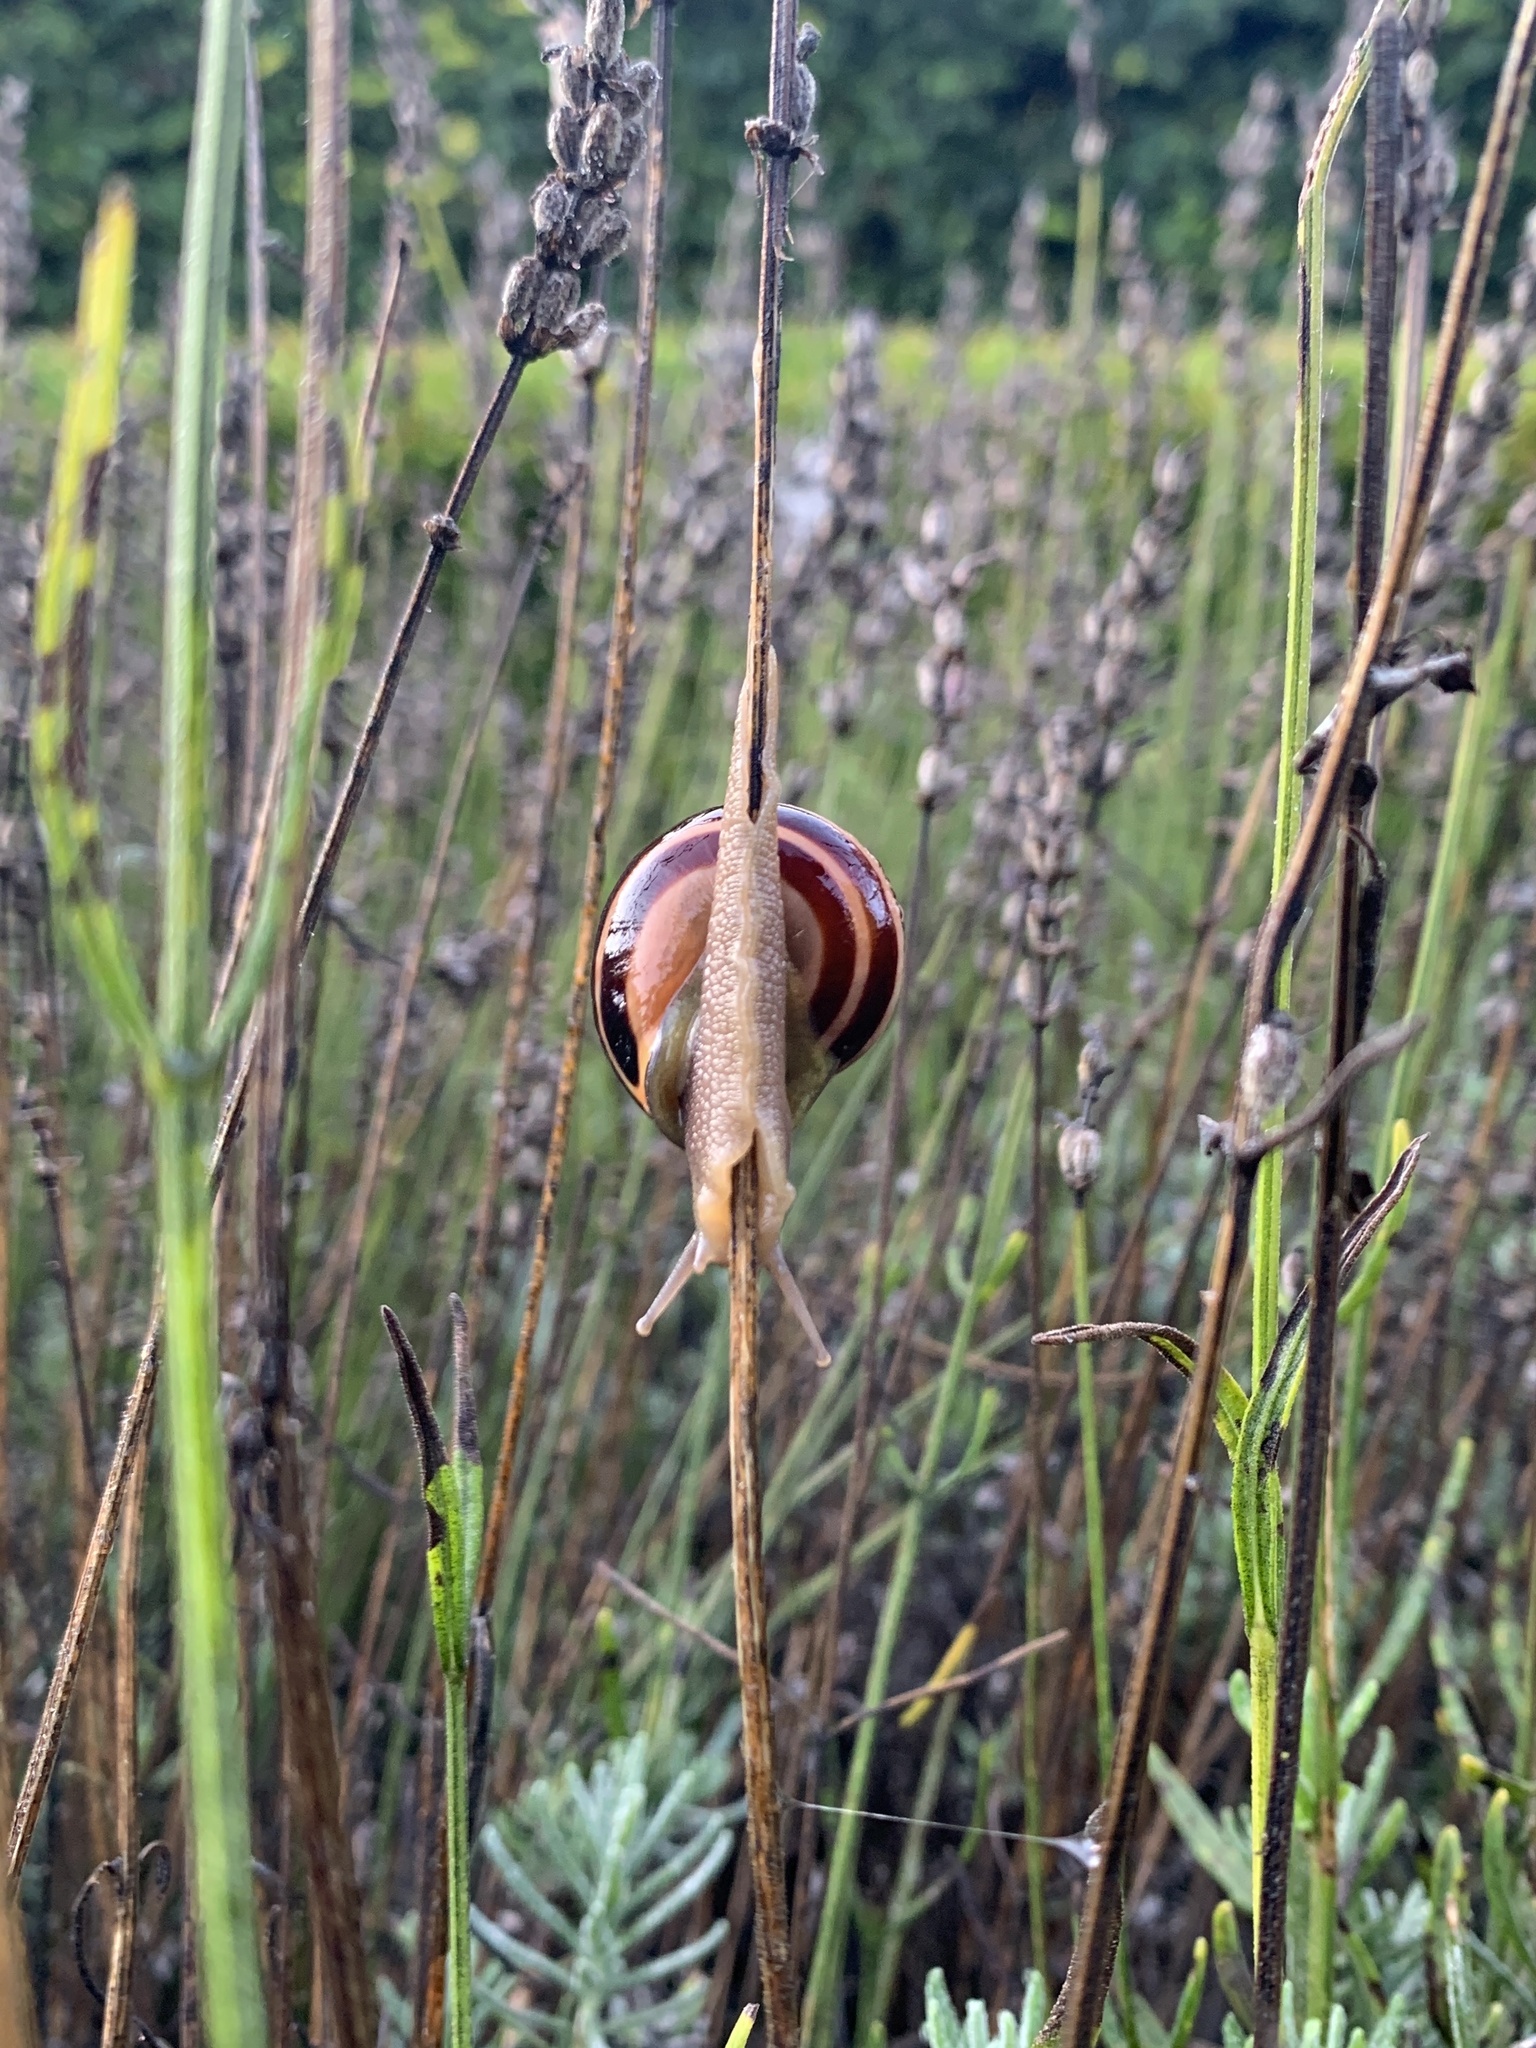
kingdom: Animalia
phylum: Mollusca
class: Gastropoda
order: Stylommatophora
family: Helicidae
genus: Cepaea
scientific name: Cepaea nemoralis
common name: Grovesnail
